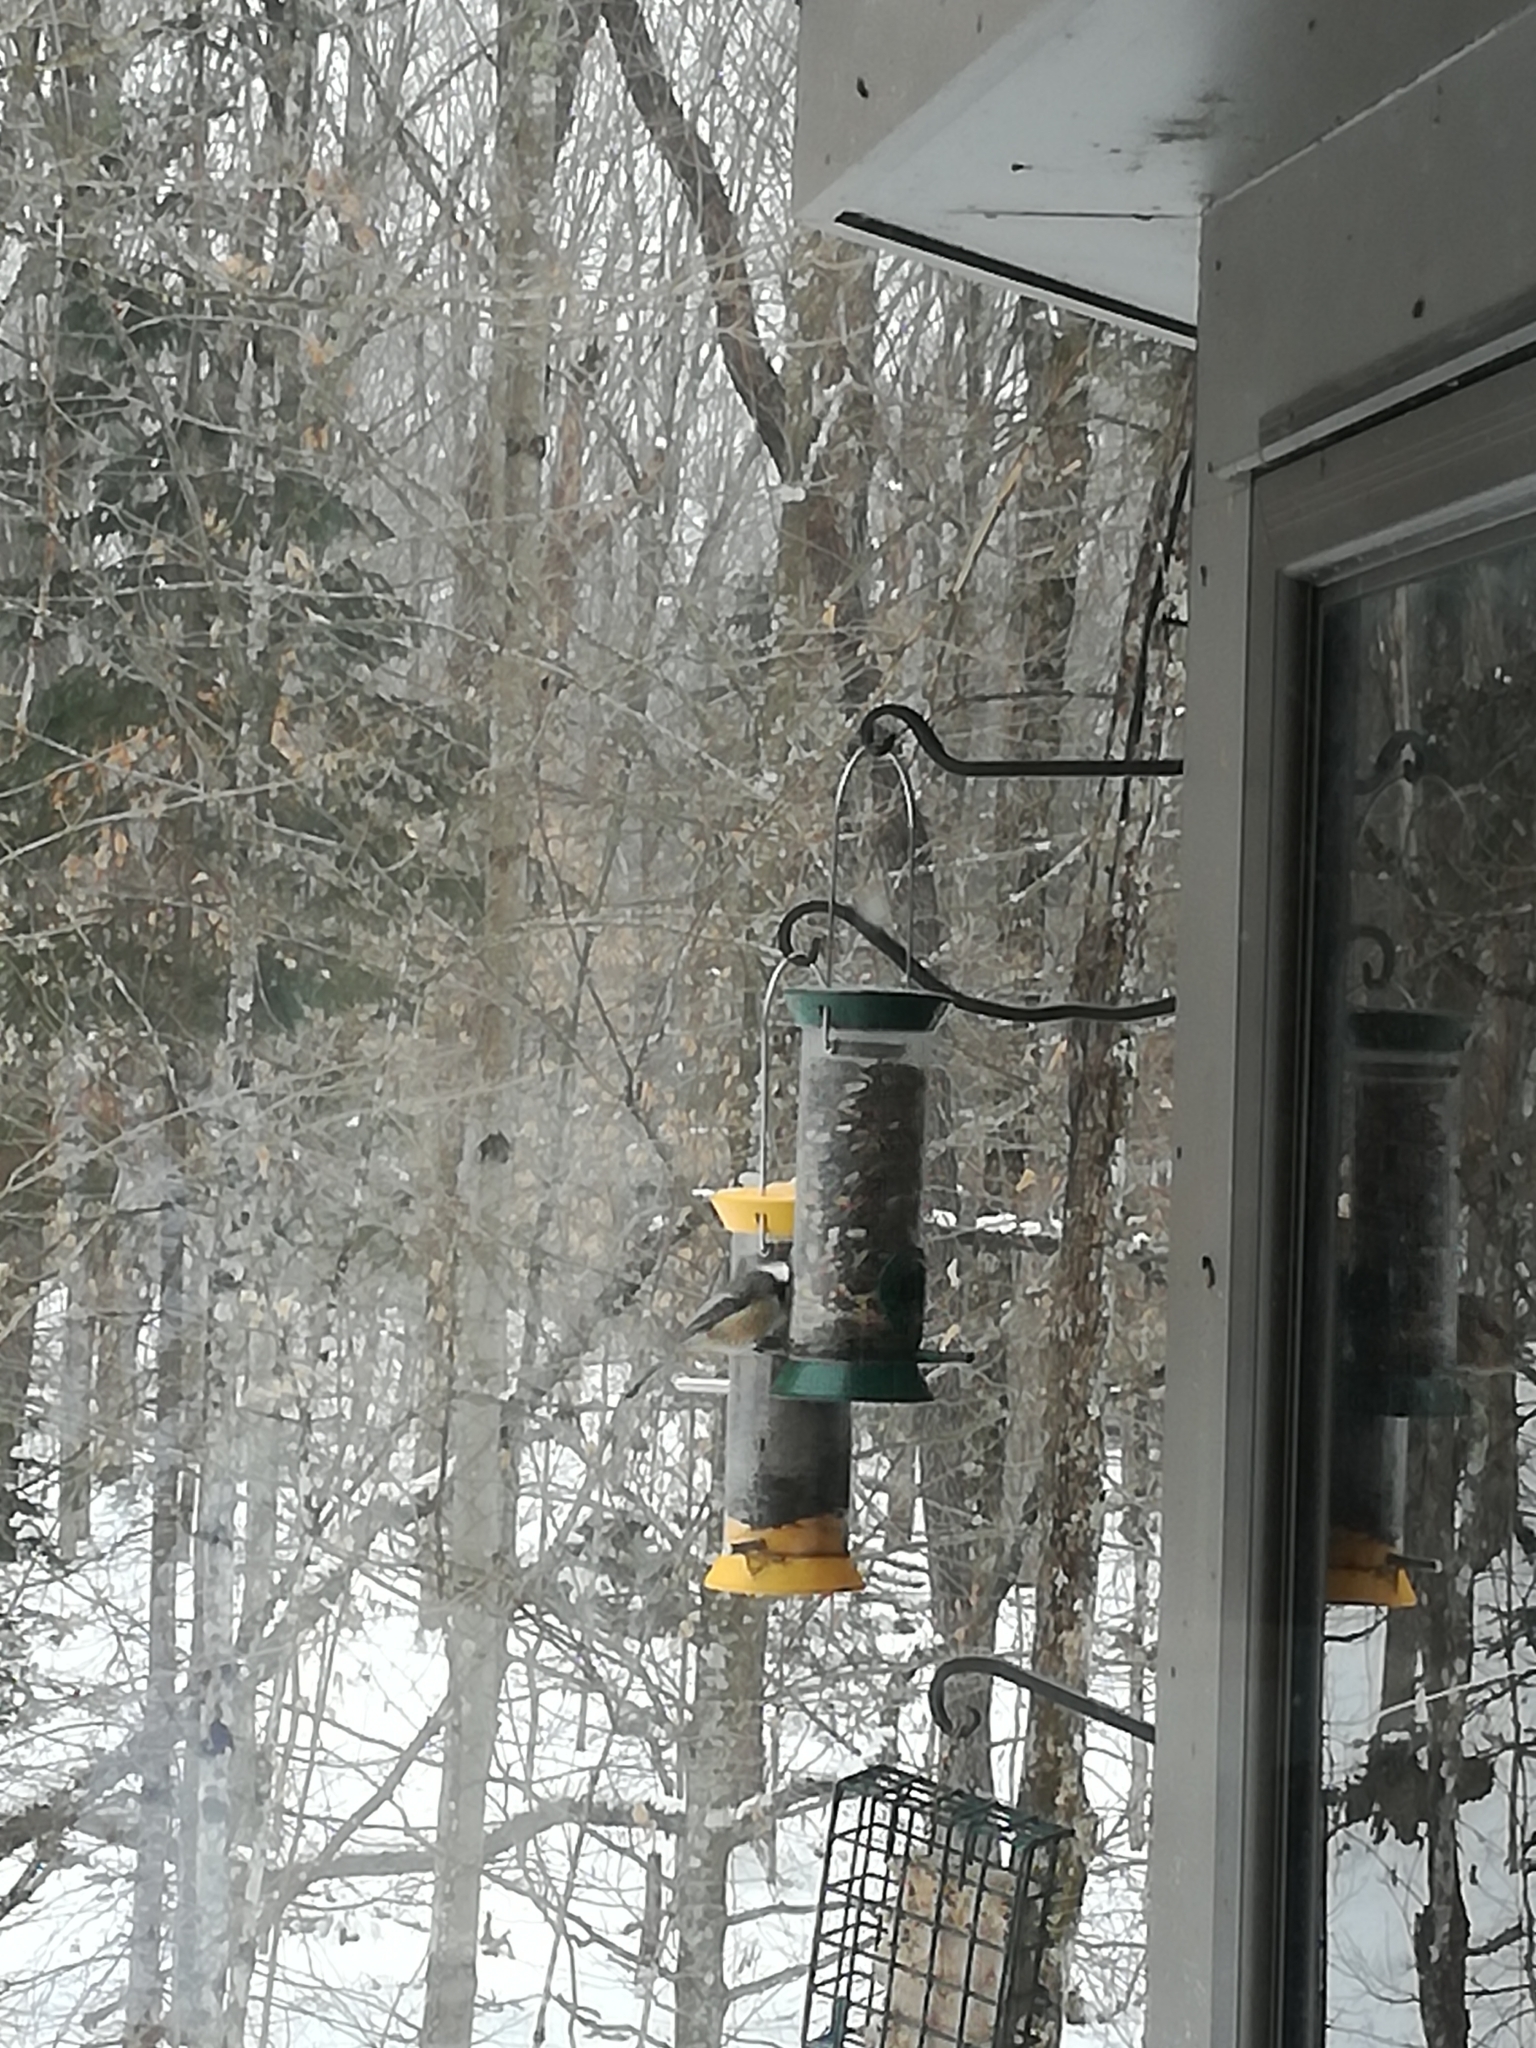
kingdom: Animalia
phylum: Chordata
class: Aves
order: Passeriformes
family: Paridae
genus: Poecile
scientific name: Poecile atricapillus
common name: Black-capped chickadee
